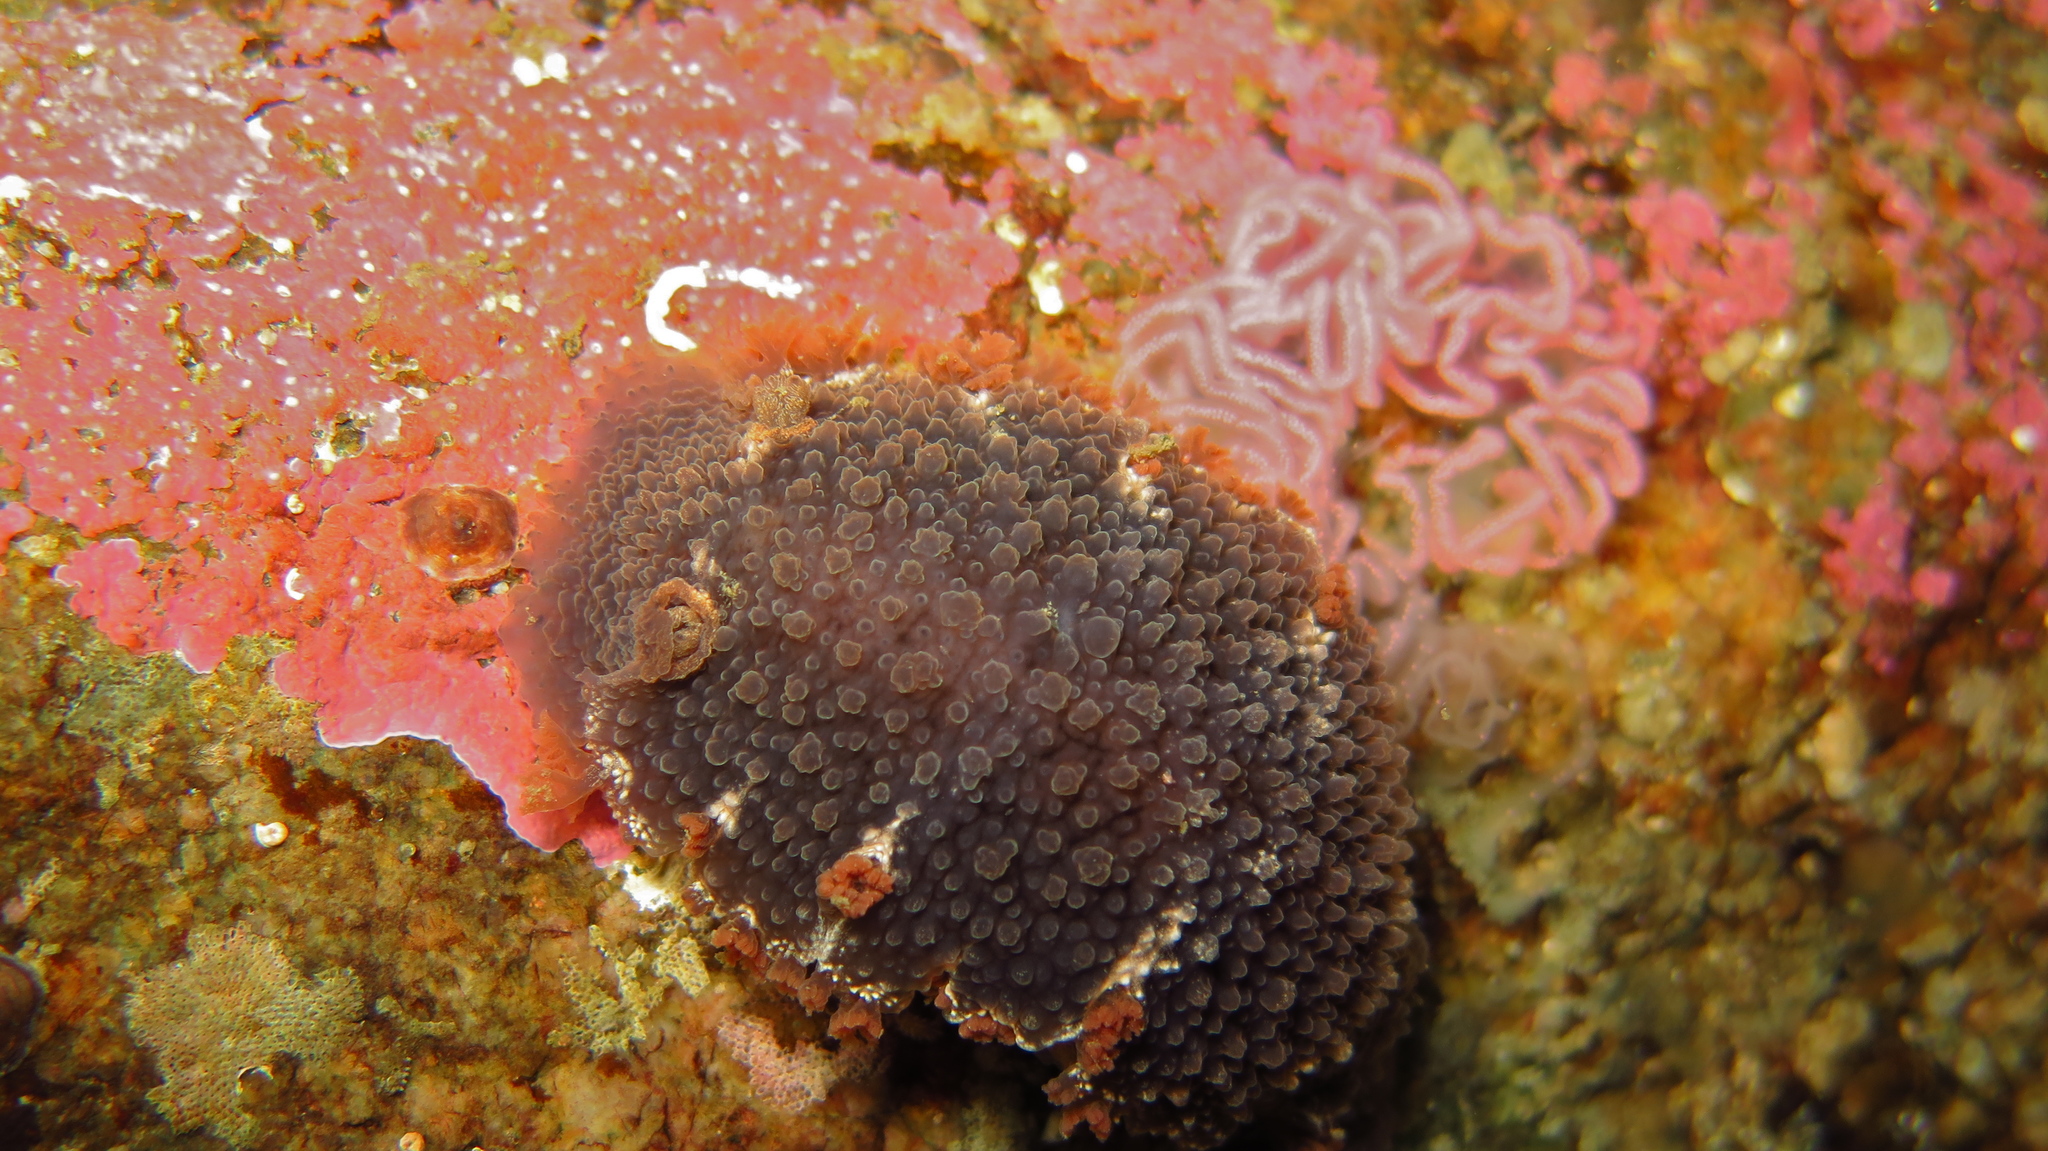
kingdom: Animalia
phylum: Mollusca
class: Gastropoda
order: Nudibranchia
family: Tritoniidae
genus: Tritonia
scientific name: Tritonia hombergii
